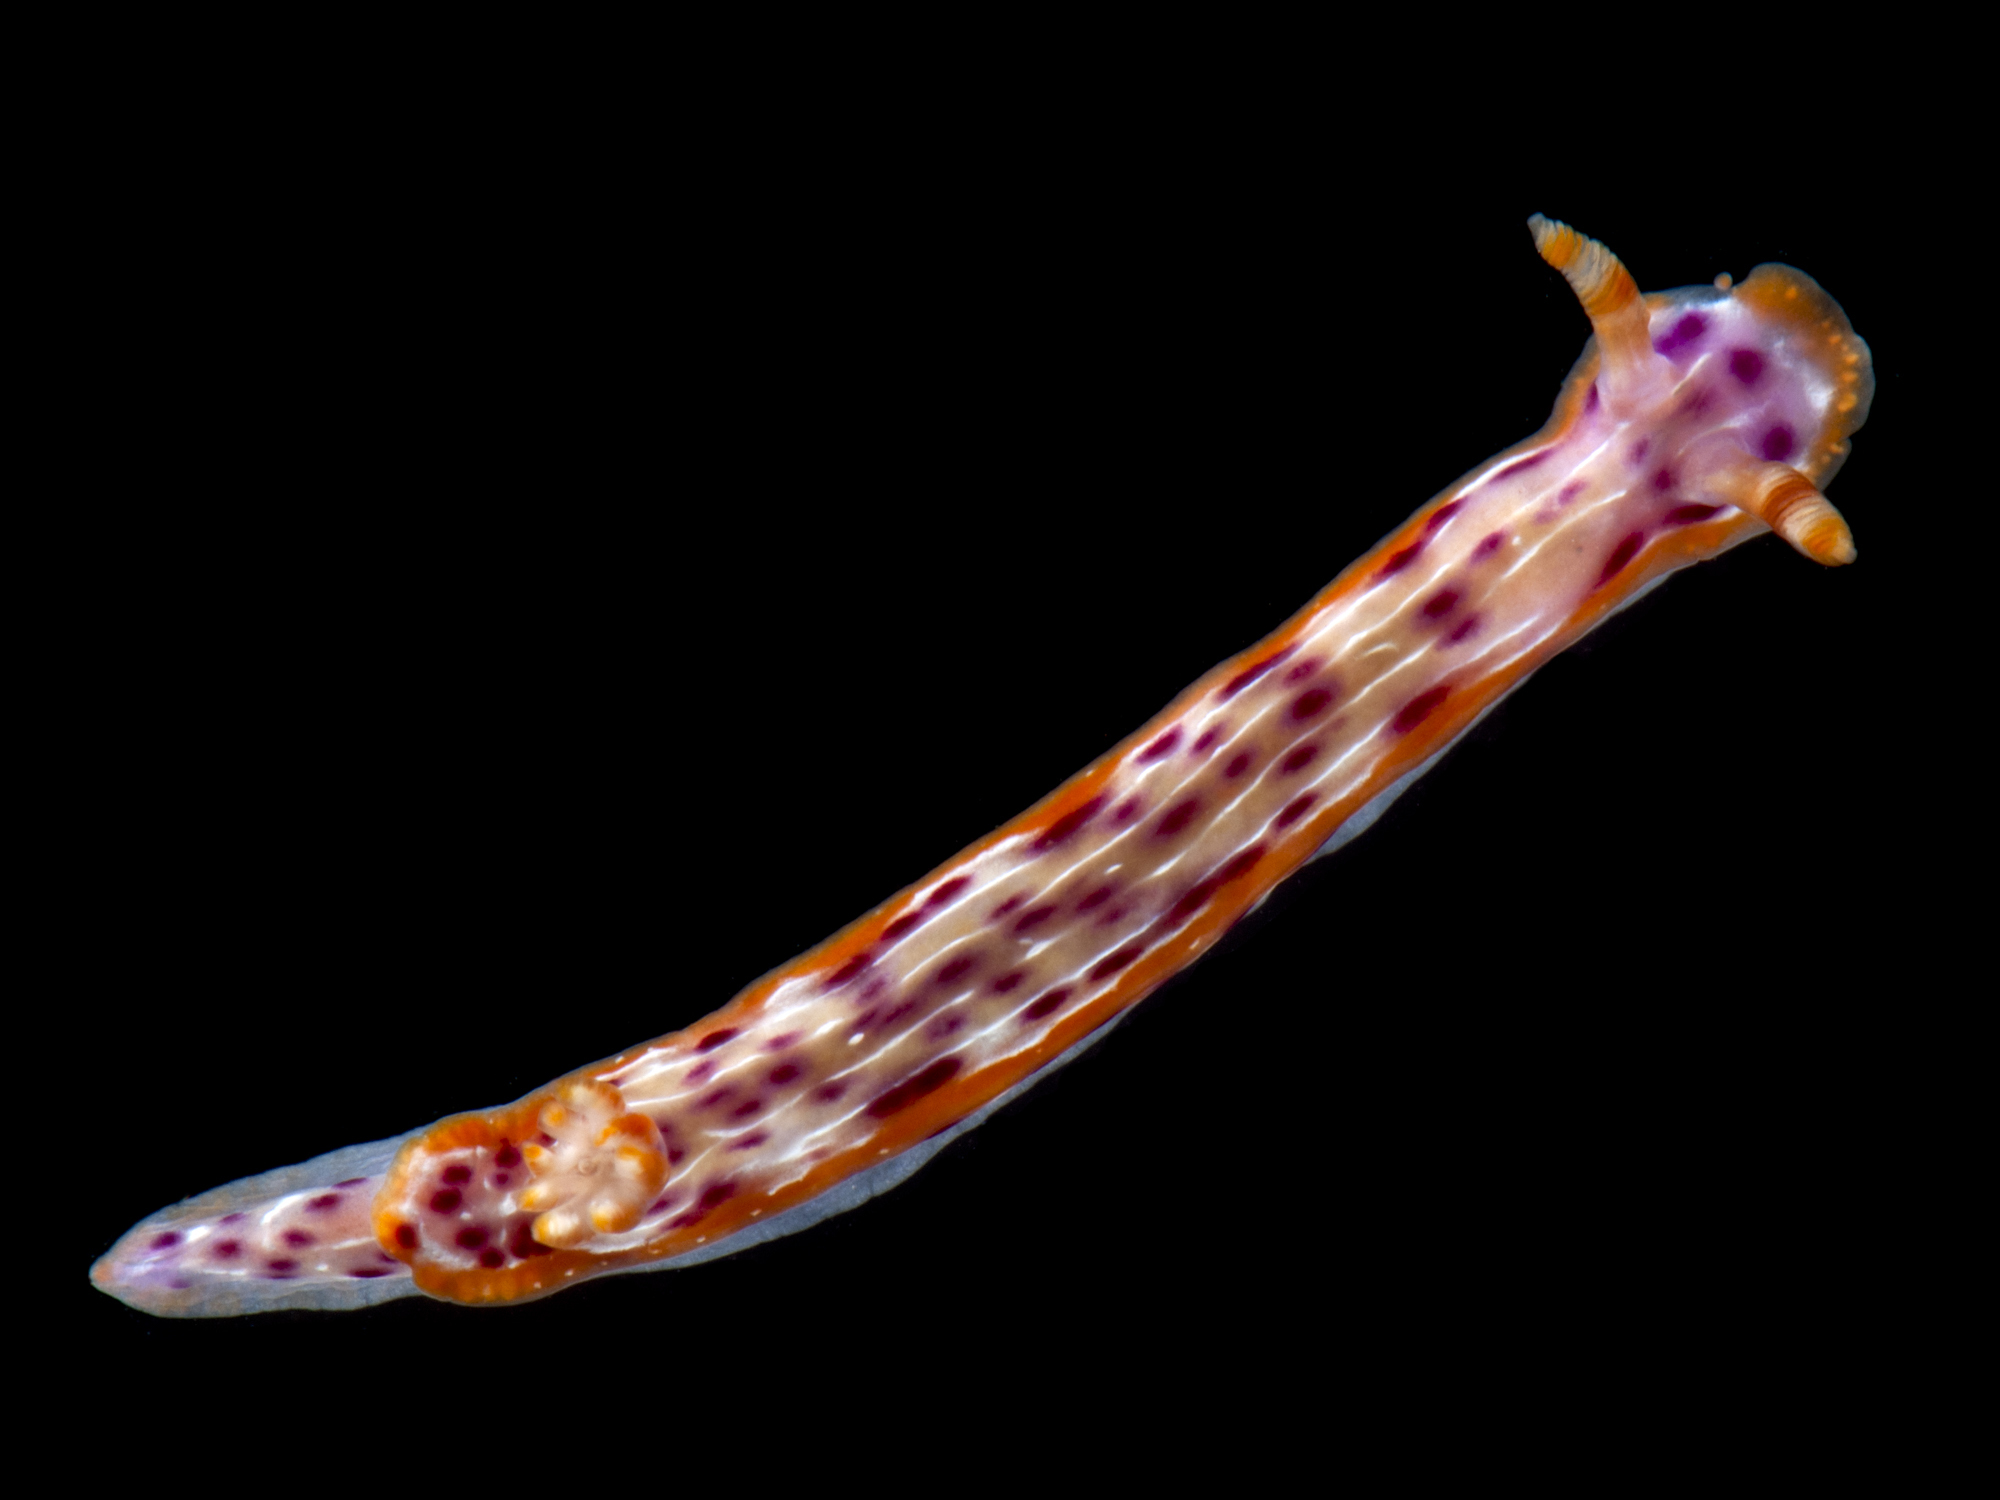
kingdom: Animalia
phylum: Mollusca
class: Gastropoda
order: Nudibranchia
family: Chromodorididae
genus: Hypselodoris
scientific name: Hypselodoris yarae
